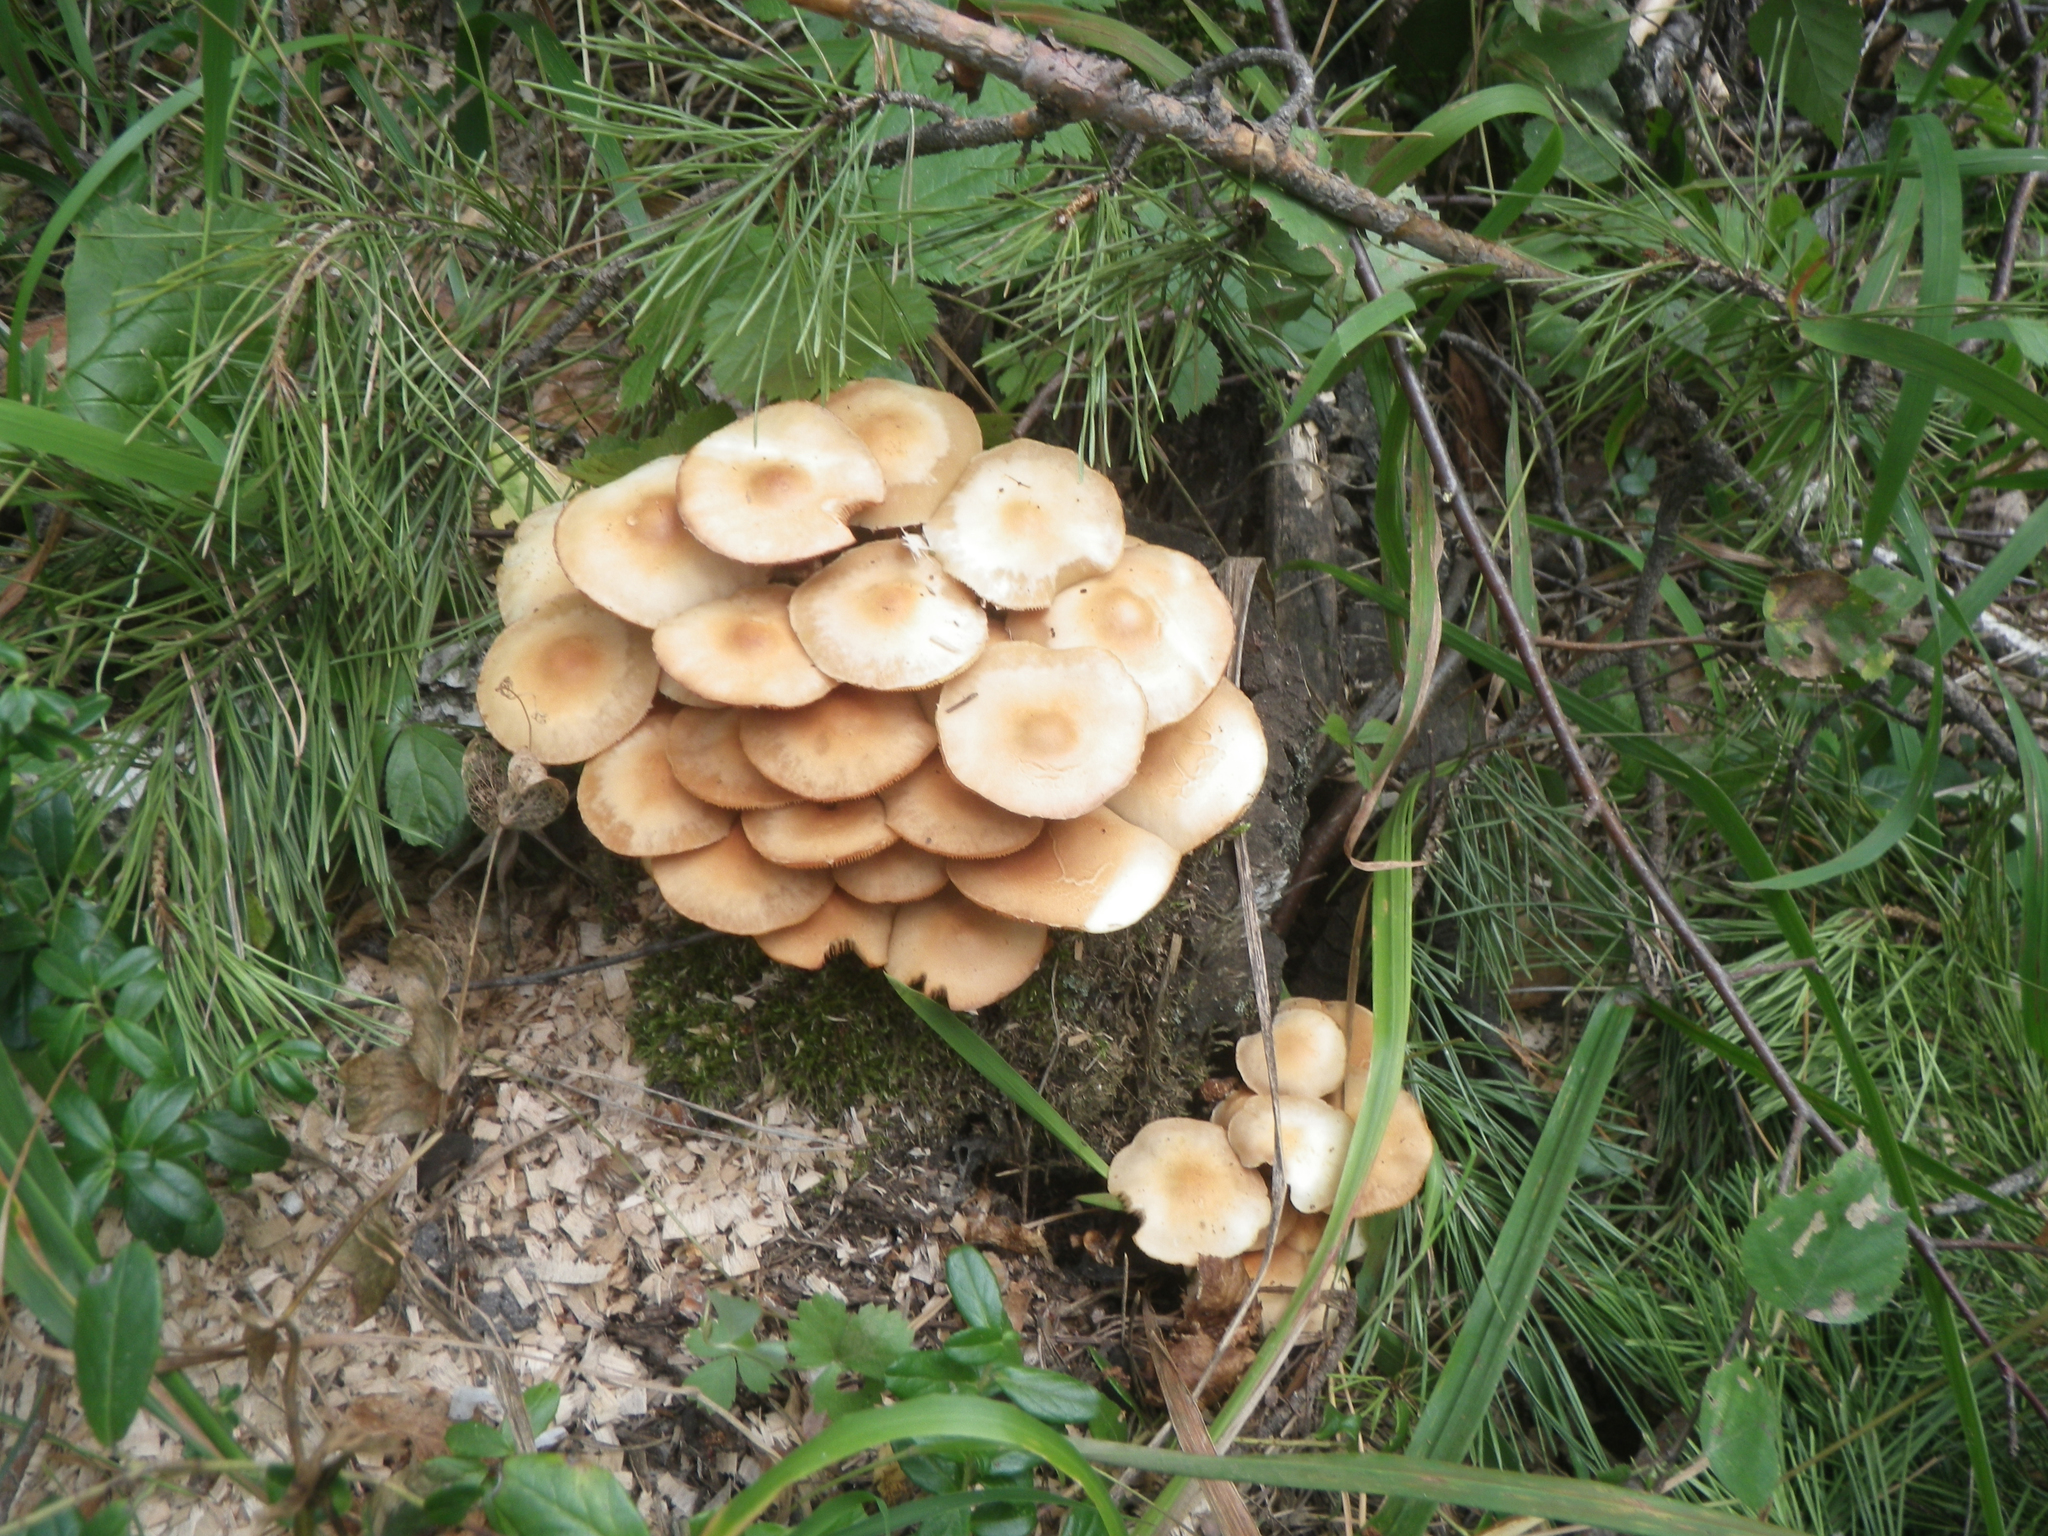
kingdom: Fungi
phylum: Basidiomycota
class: Agaricomycetes
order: Agaricales
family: Strophariaceae
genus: Kuehneromyces
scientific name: Kuehneromyces mutabilis
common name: Sheathed woodtuft
